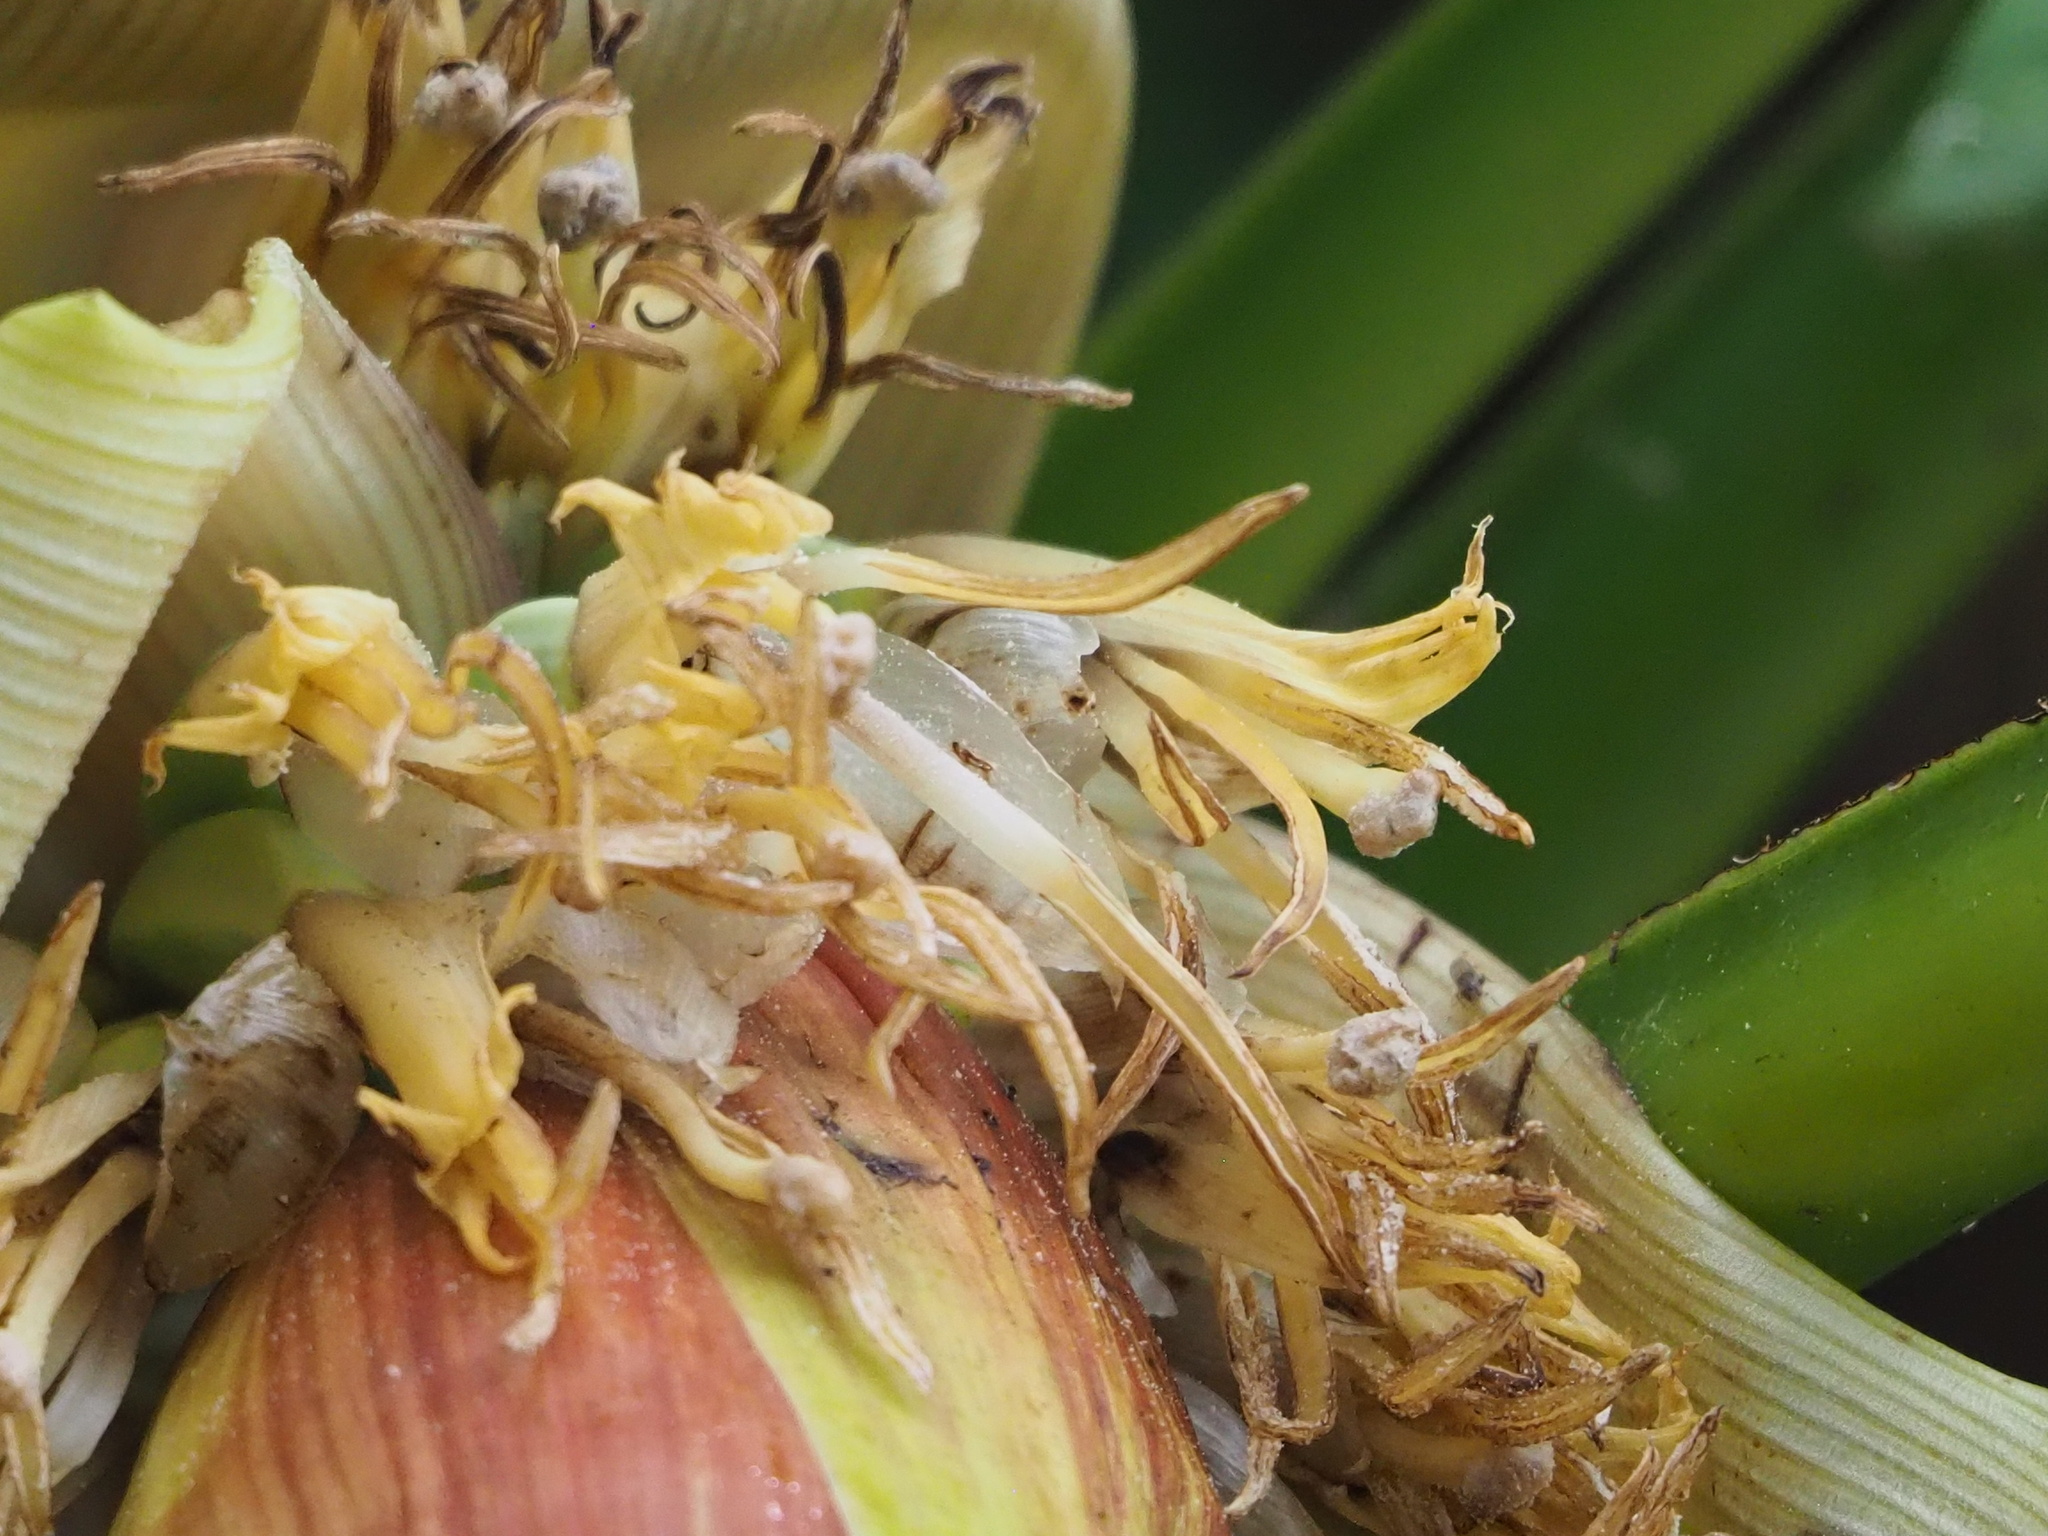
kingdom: Plantae
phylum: Tracheophyta
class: Liliopsida
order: Zingiberales
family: Musaceae
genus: Musa
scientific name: Musa itinerans
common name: Yunnan banana
